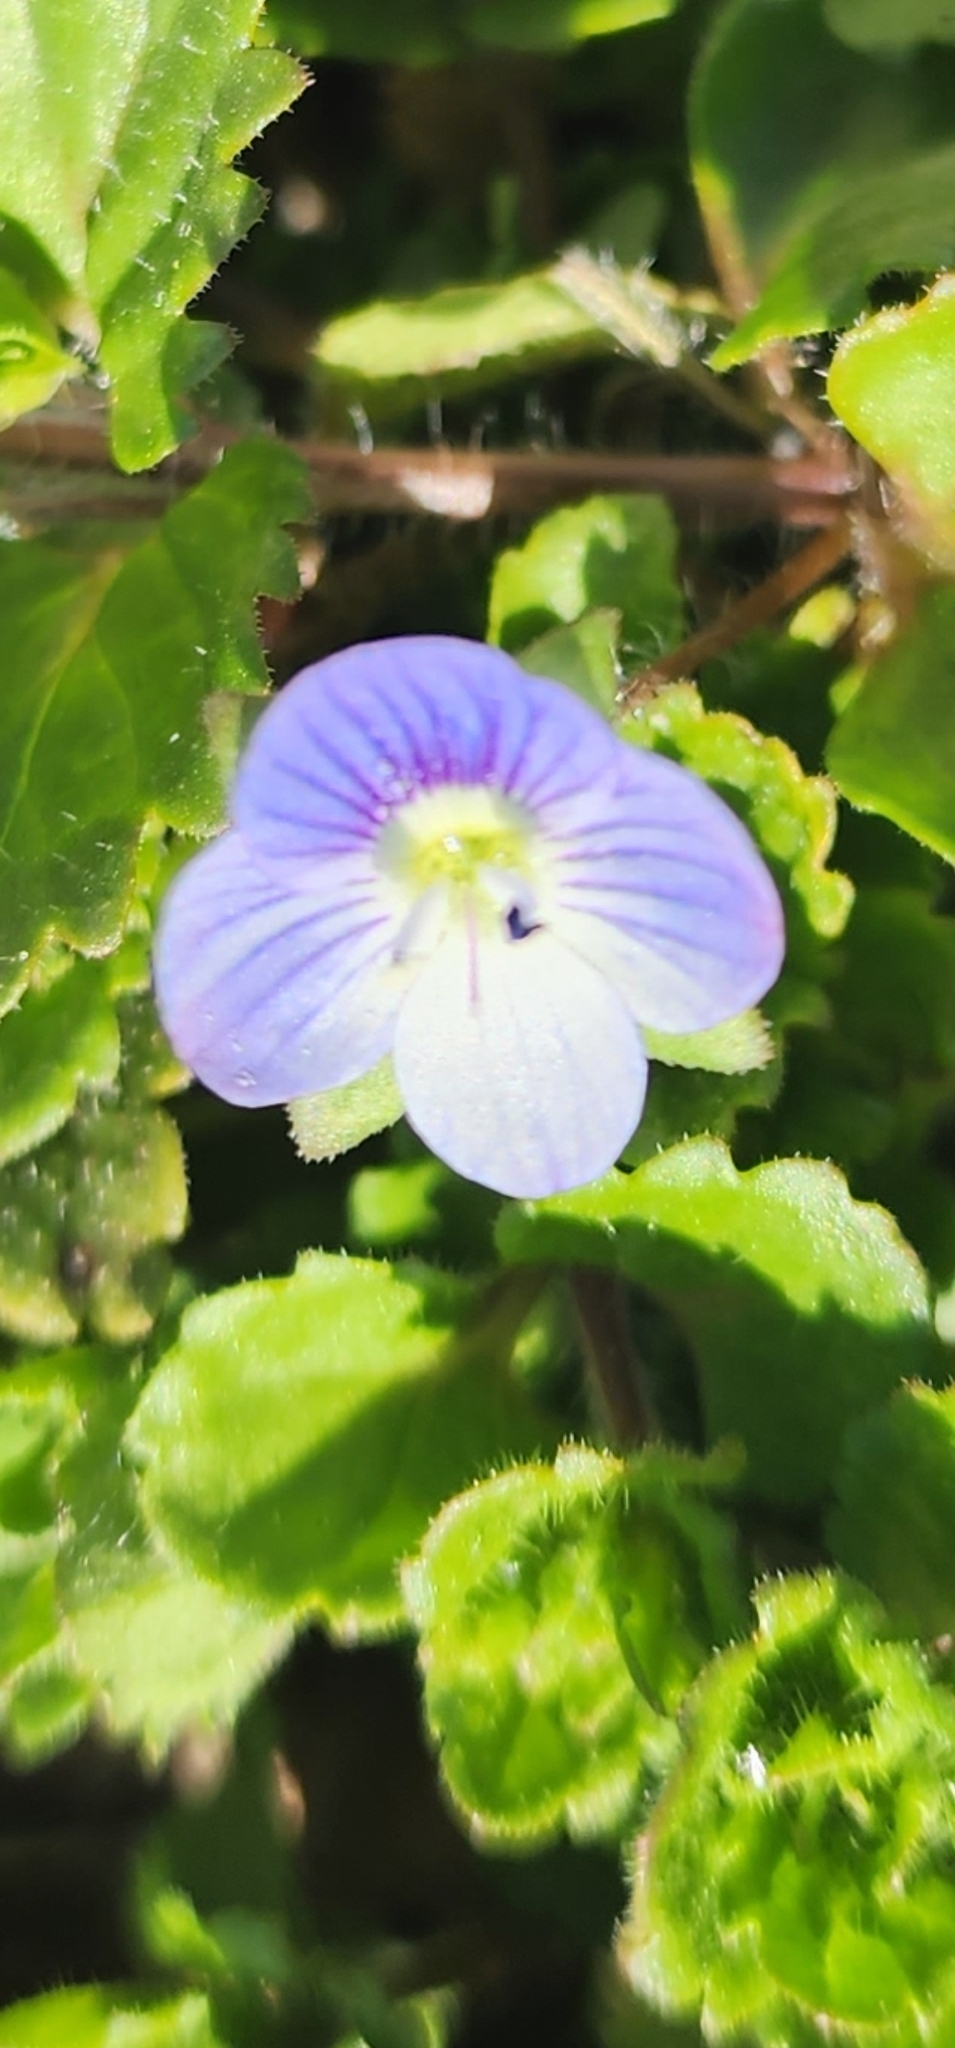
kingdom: Plantae
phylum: Tracheophyta
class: Magnoliopsida
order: Lamiales
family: Plantaginaceae
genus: Veronica
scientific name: Veronica persica
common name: Common field-speedwell
